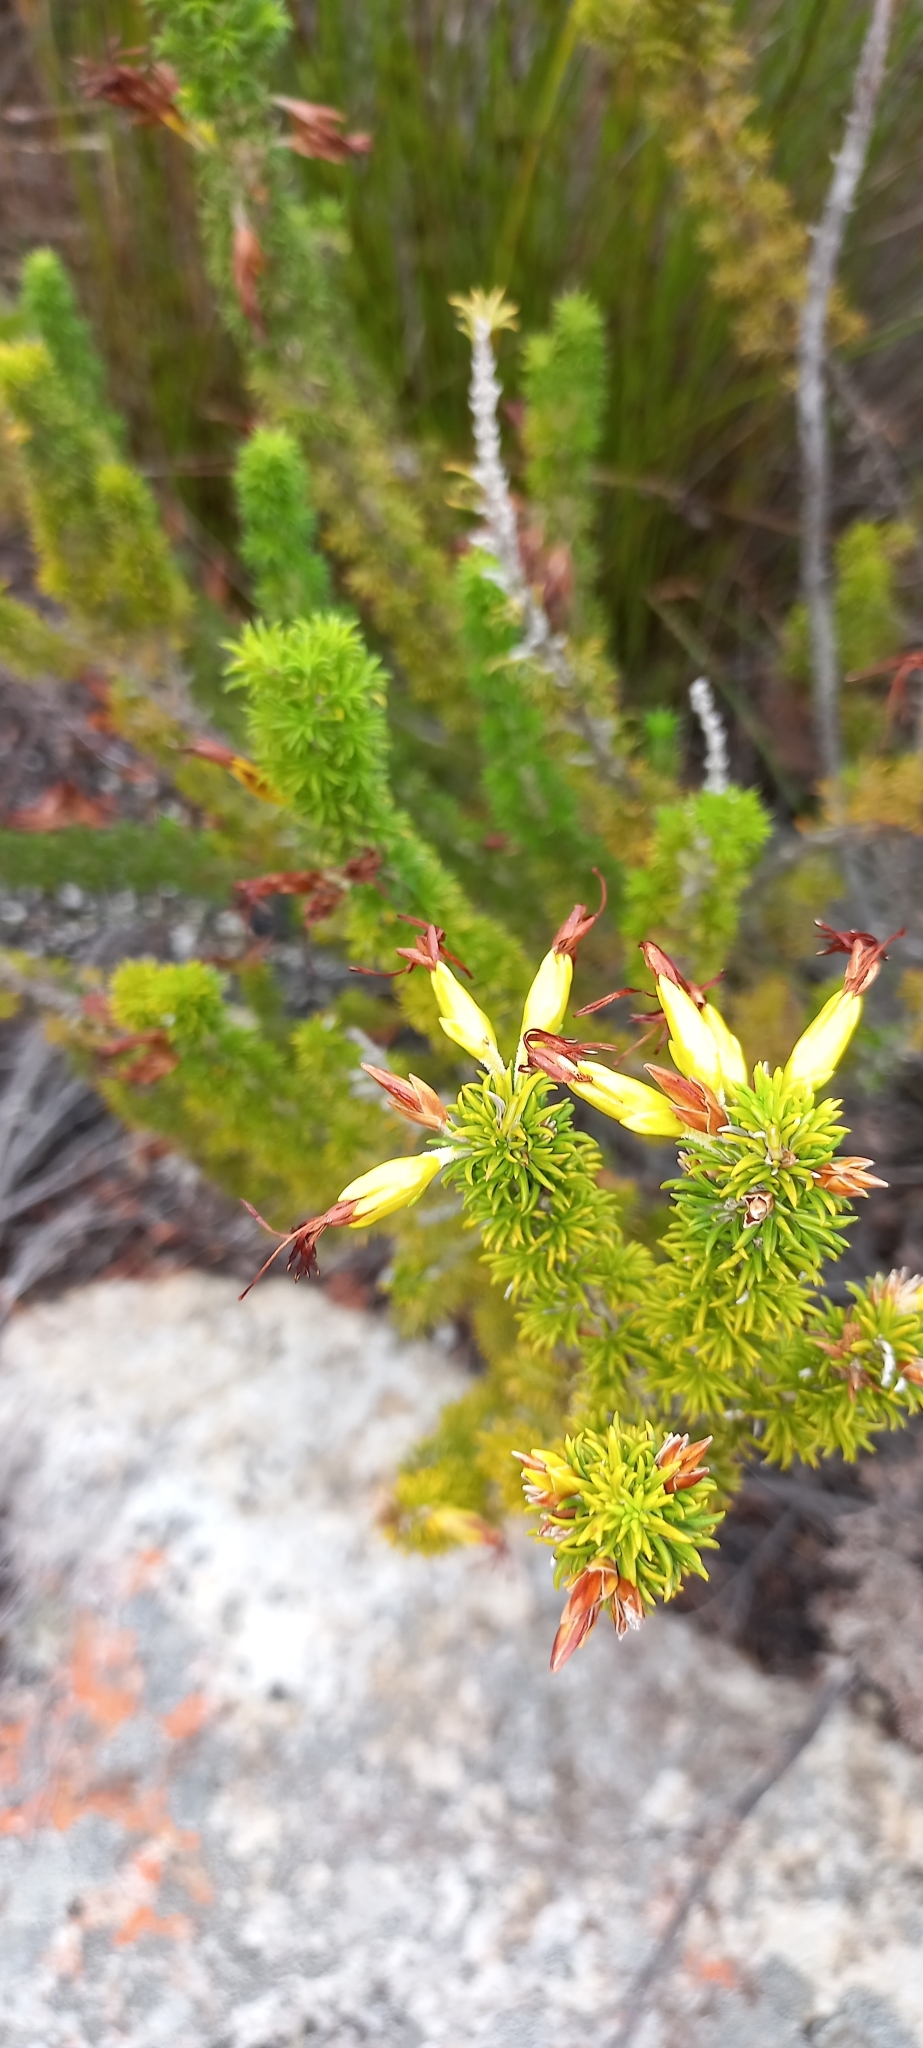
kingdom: Plantae
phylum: Tracheophyta
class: Magnoliopsida
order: Ericales
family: Ericaceae
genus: Erica
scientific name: Erica coccinea
